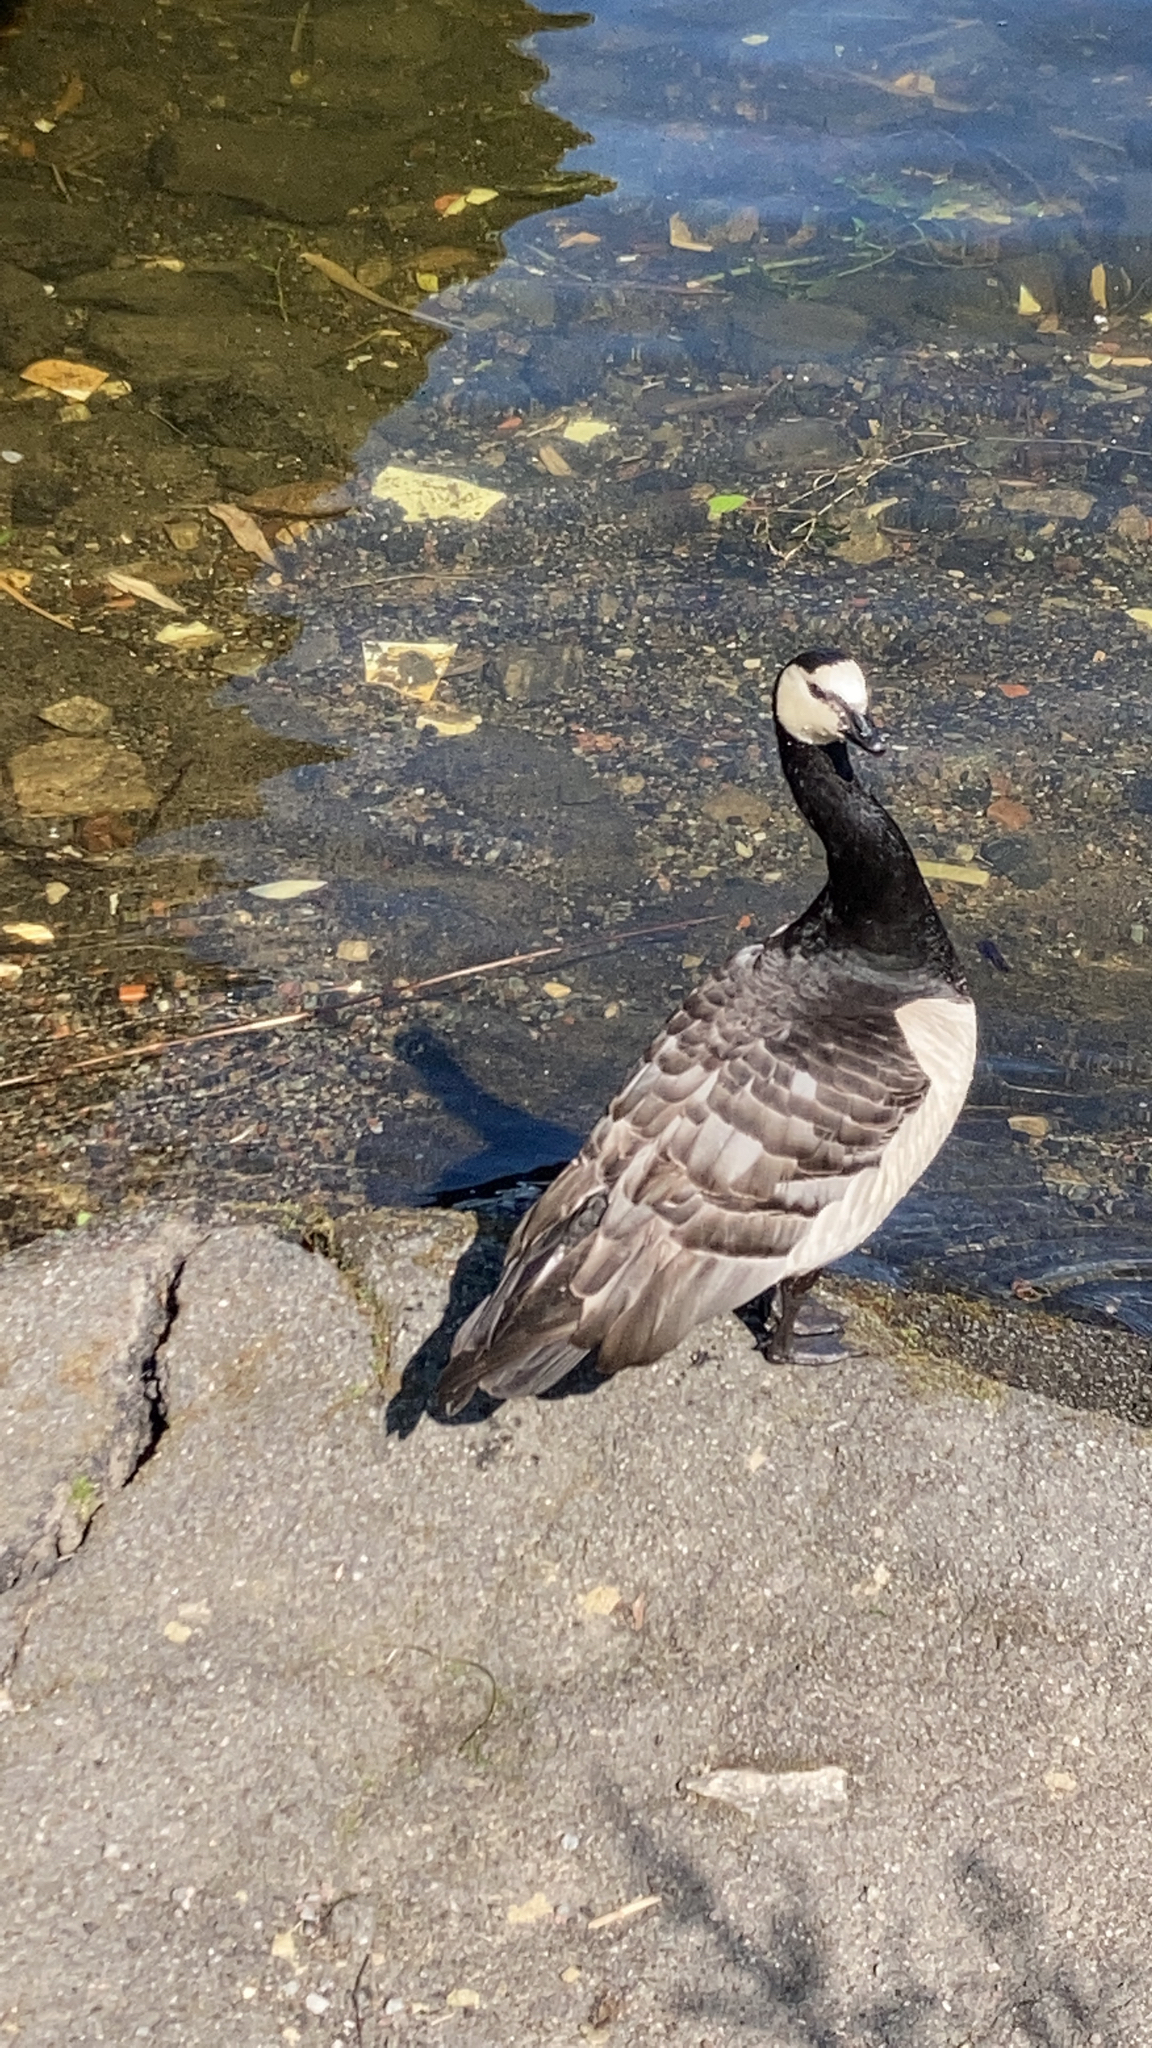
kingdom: Animalia
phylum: Chordata
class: Aves
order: Anseriformes
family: Anatidae
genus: Branta
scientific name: Branta leucopsis
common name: Barnacle goose
